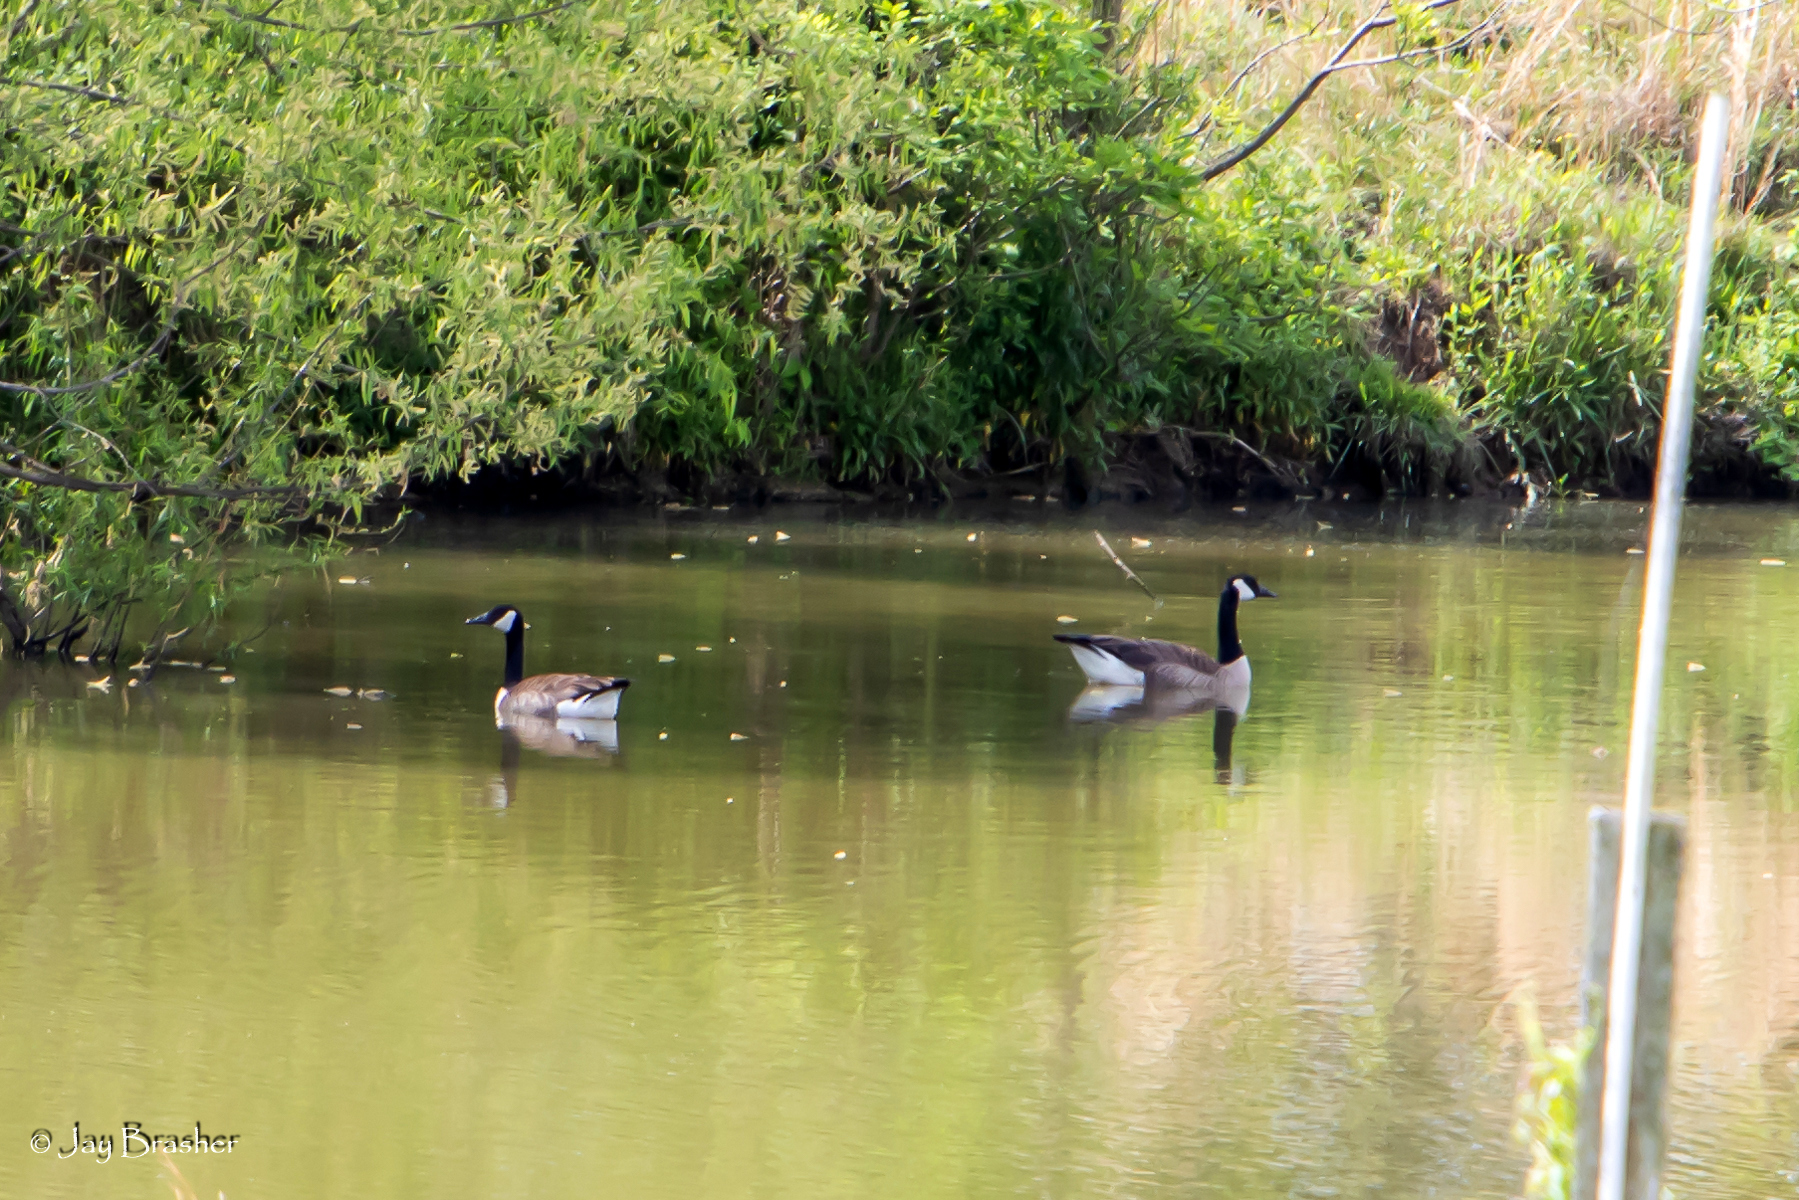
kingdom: Animalia
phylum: Chordata
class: Aves
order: Anseriformes
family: Anatidae
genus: Branta
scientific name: Branta canadensis
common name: Canada goose
